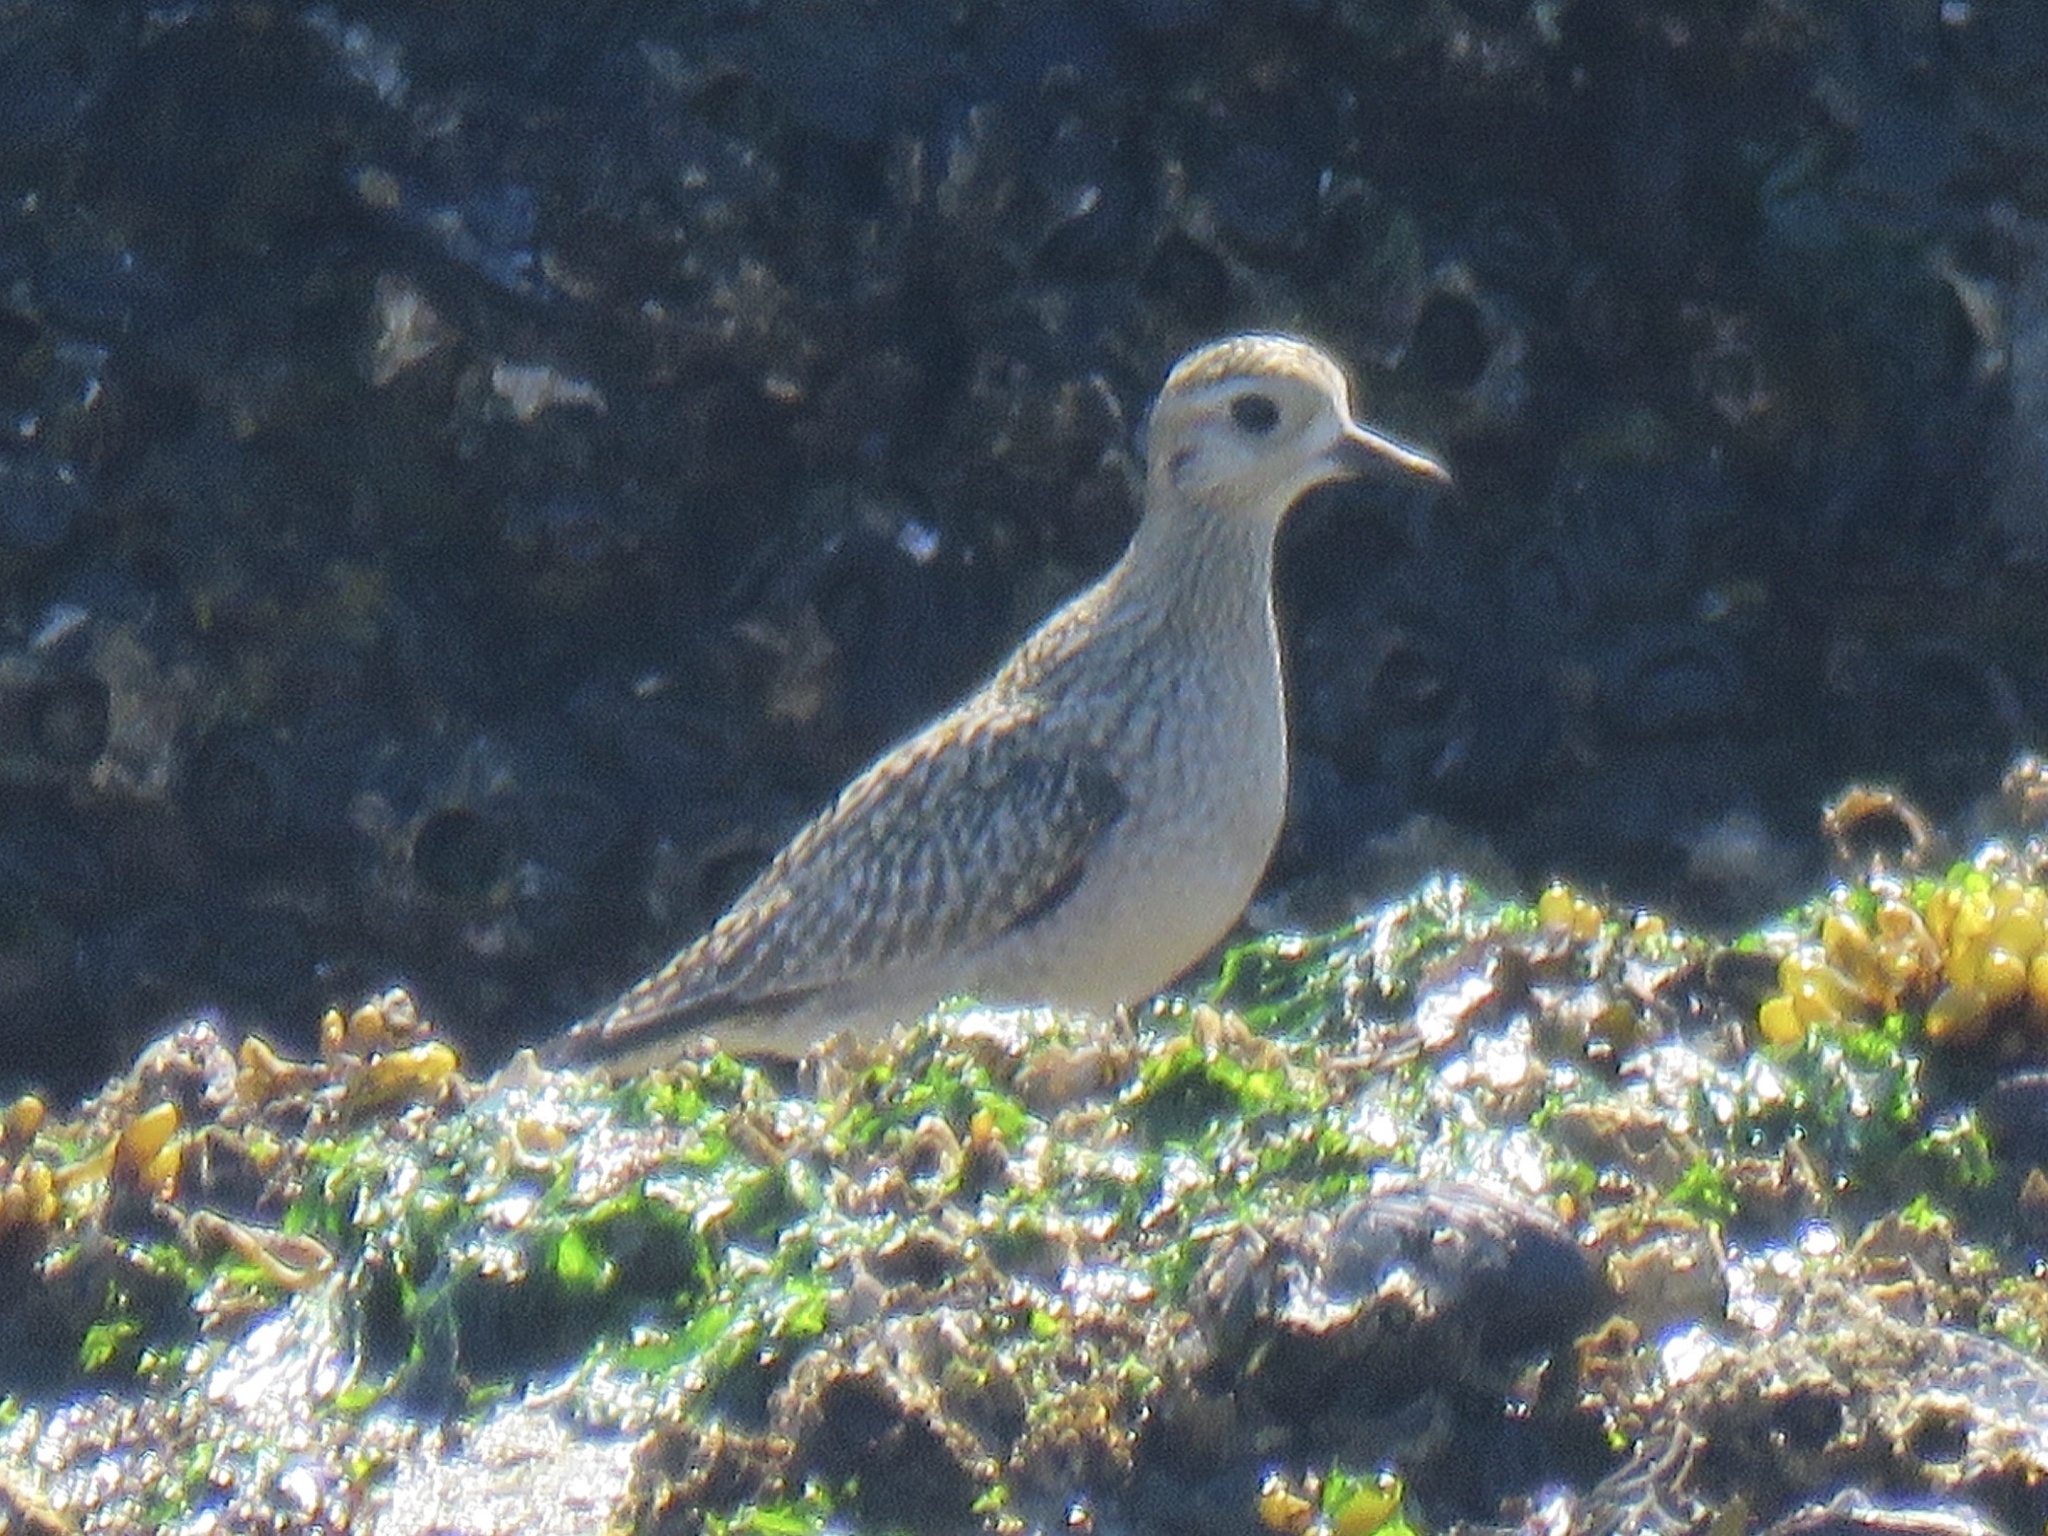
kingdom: Animalia
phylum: Chordata
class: Aves
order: Charadriiformes
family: Charadriidae
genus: Pluvialis
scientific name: Pluvialis fulva
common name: Pacific golden plover
